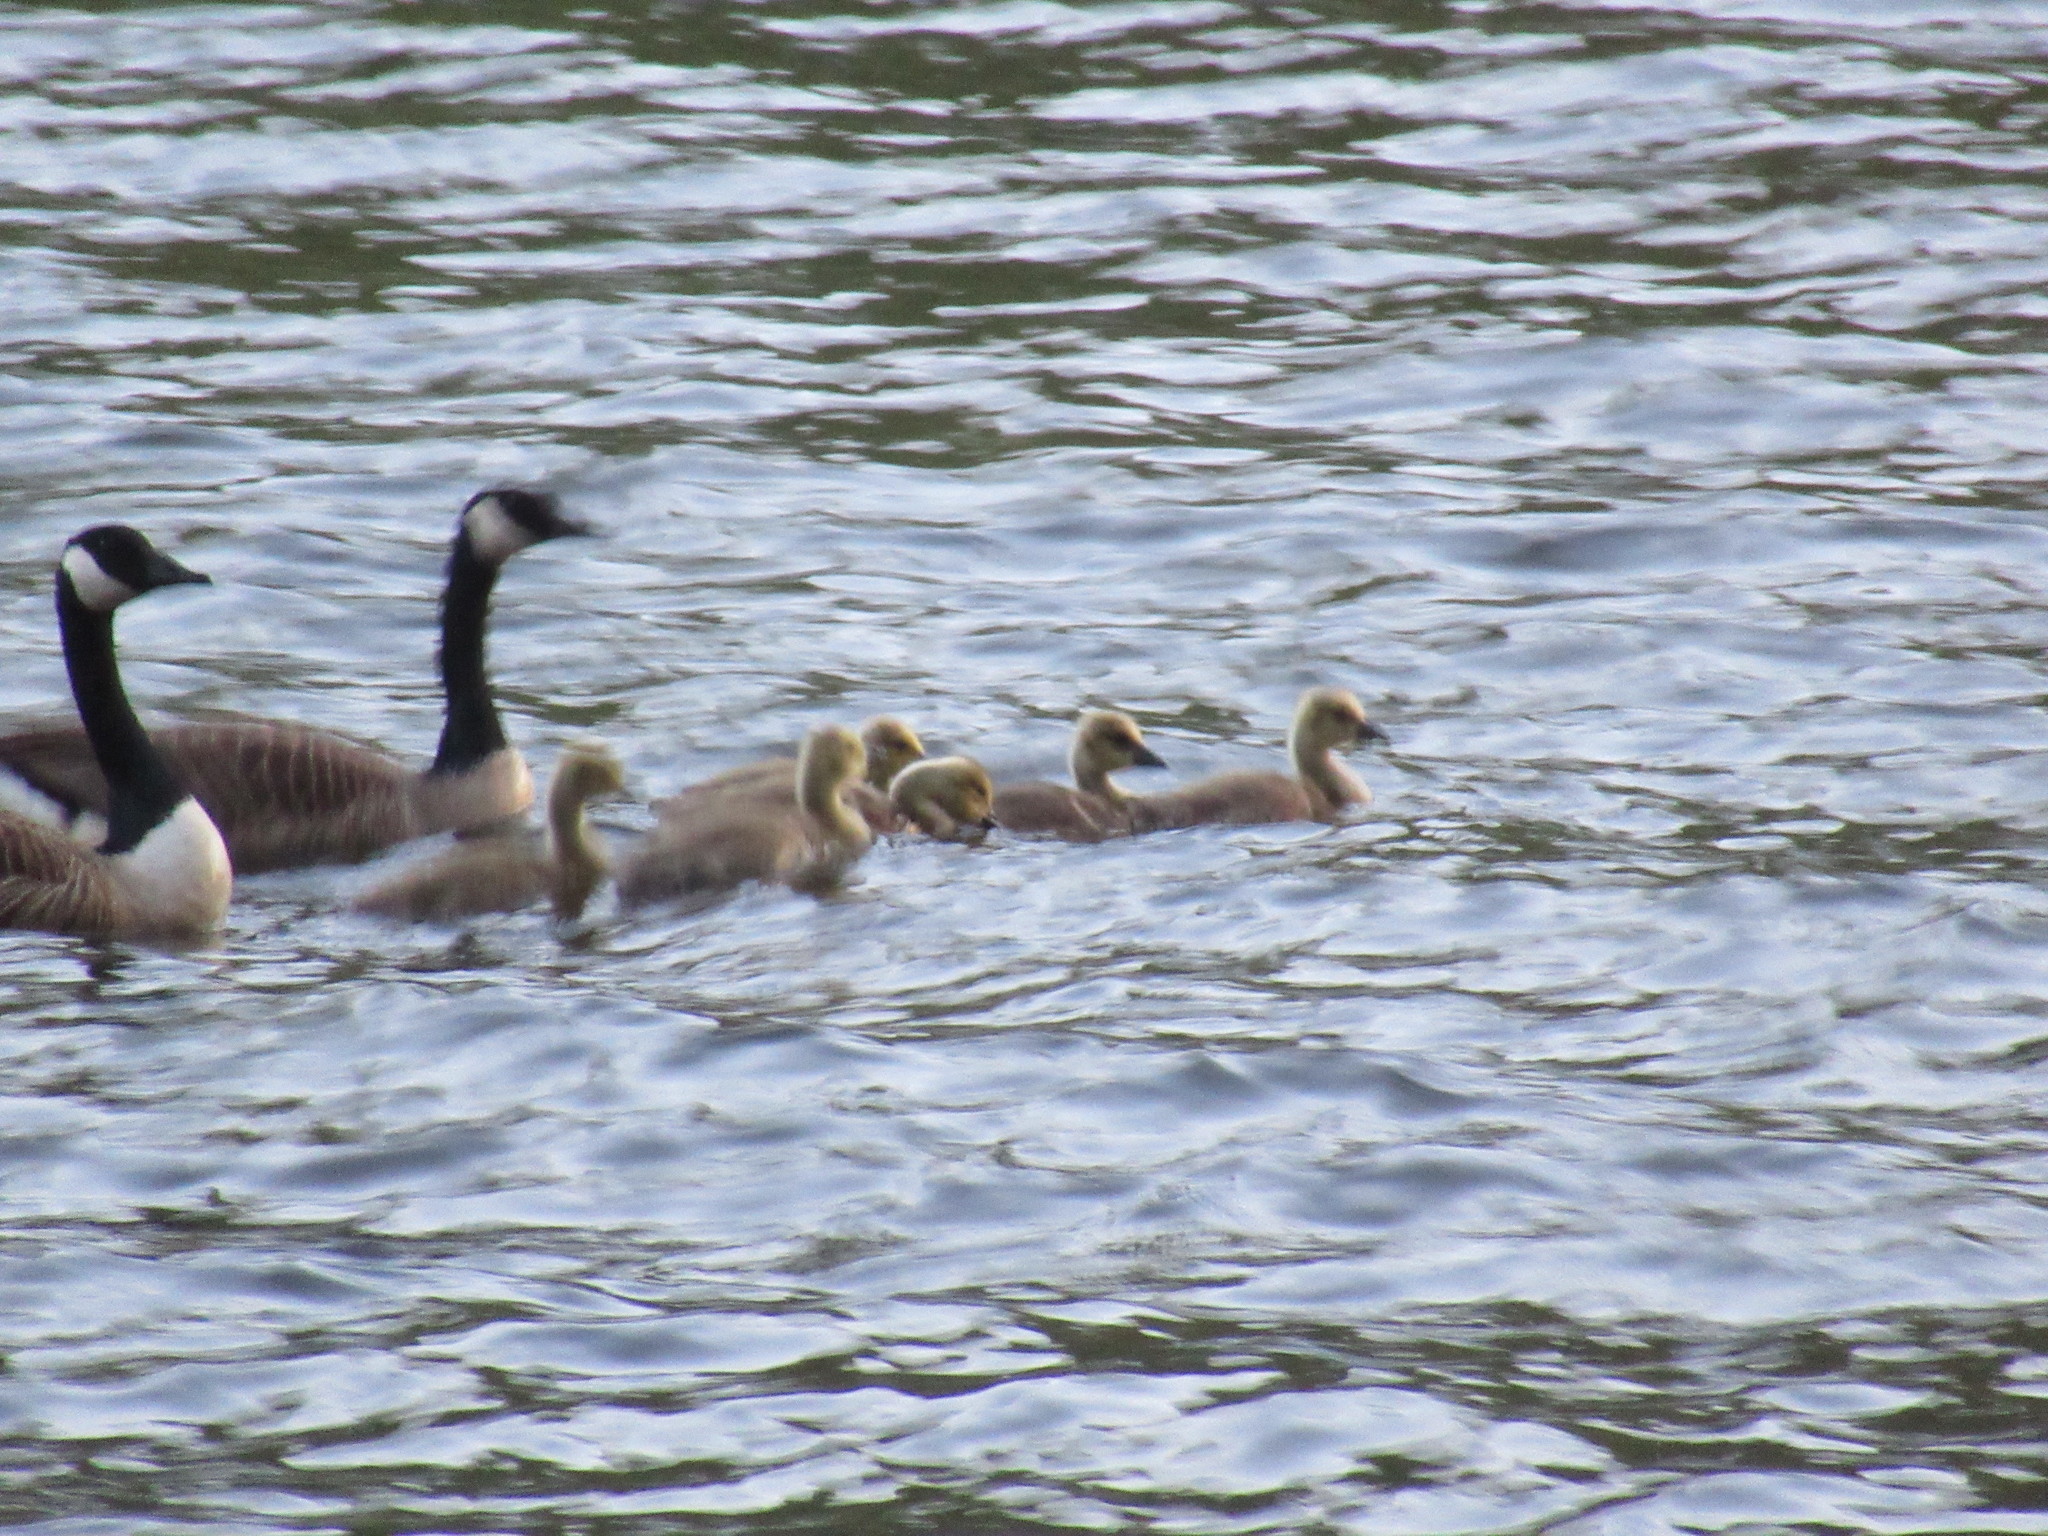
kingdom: Animalia
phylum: Chordata
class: Aves
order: Anseriformes
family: Anatidae
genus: Branta
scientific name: Branta canadensis
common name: Canada goose
